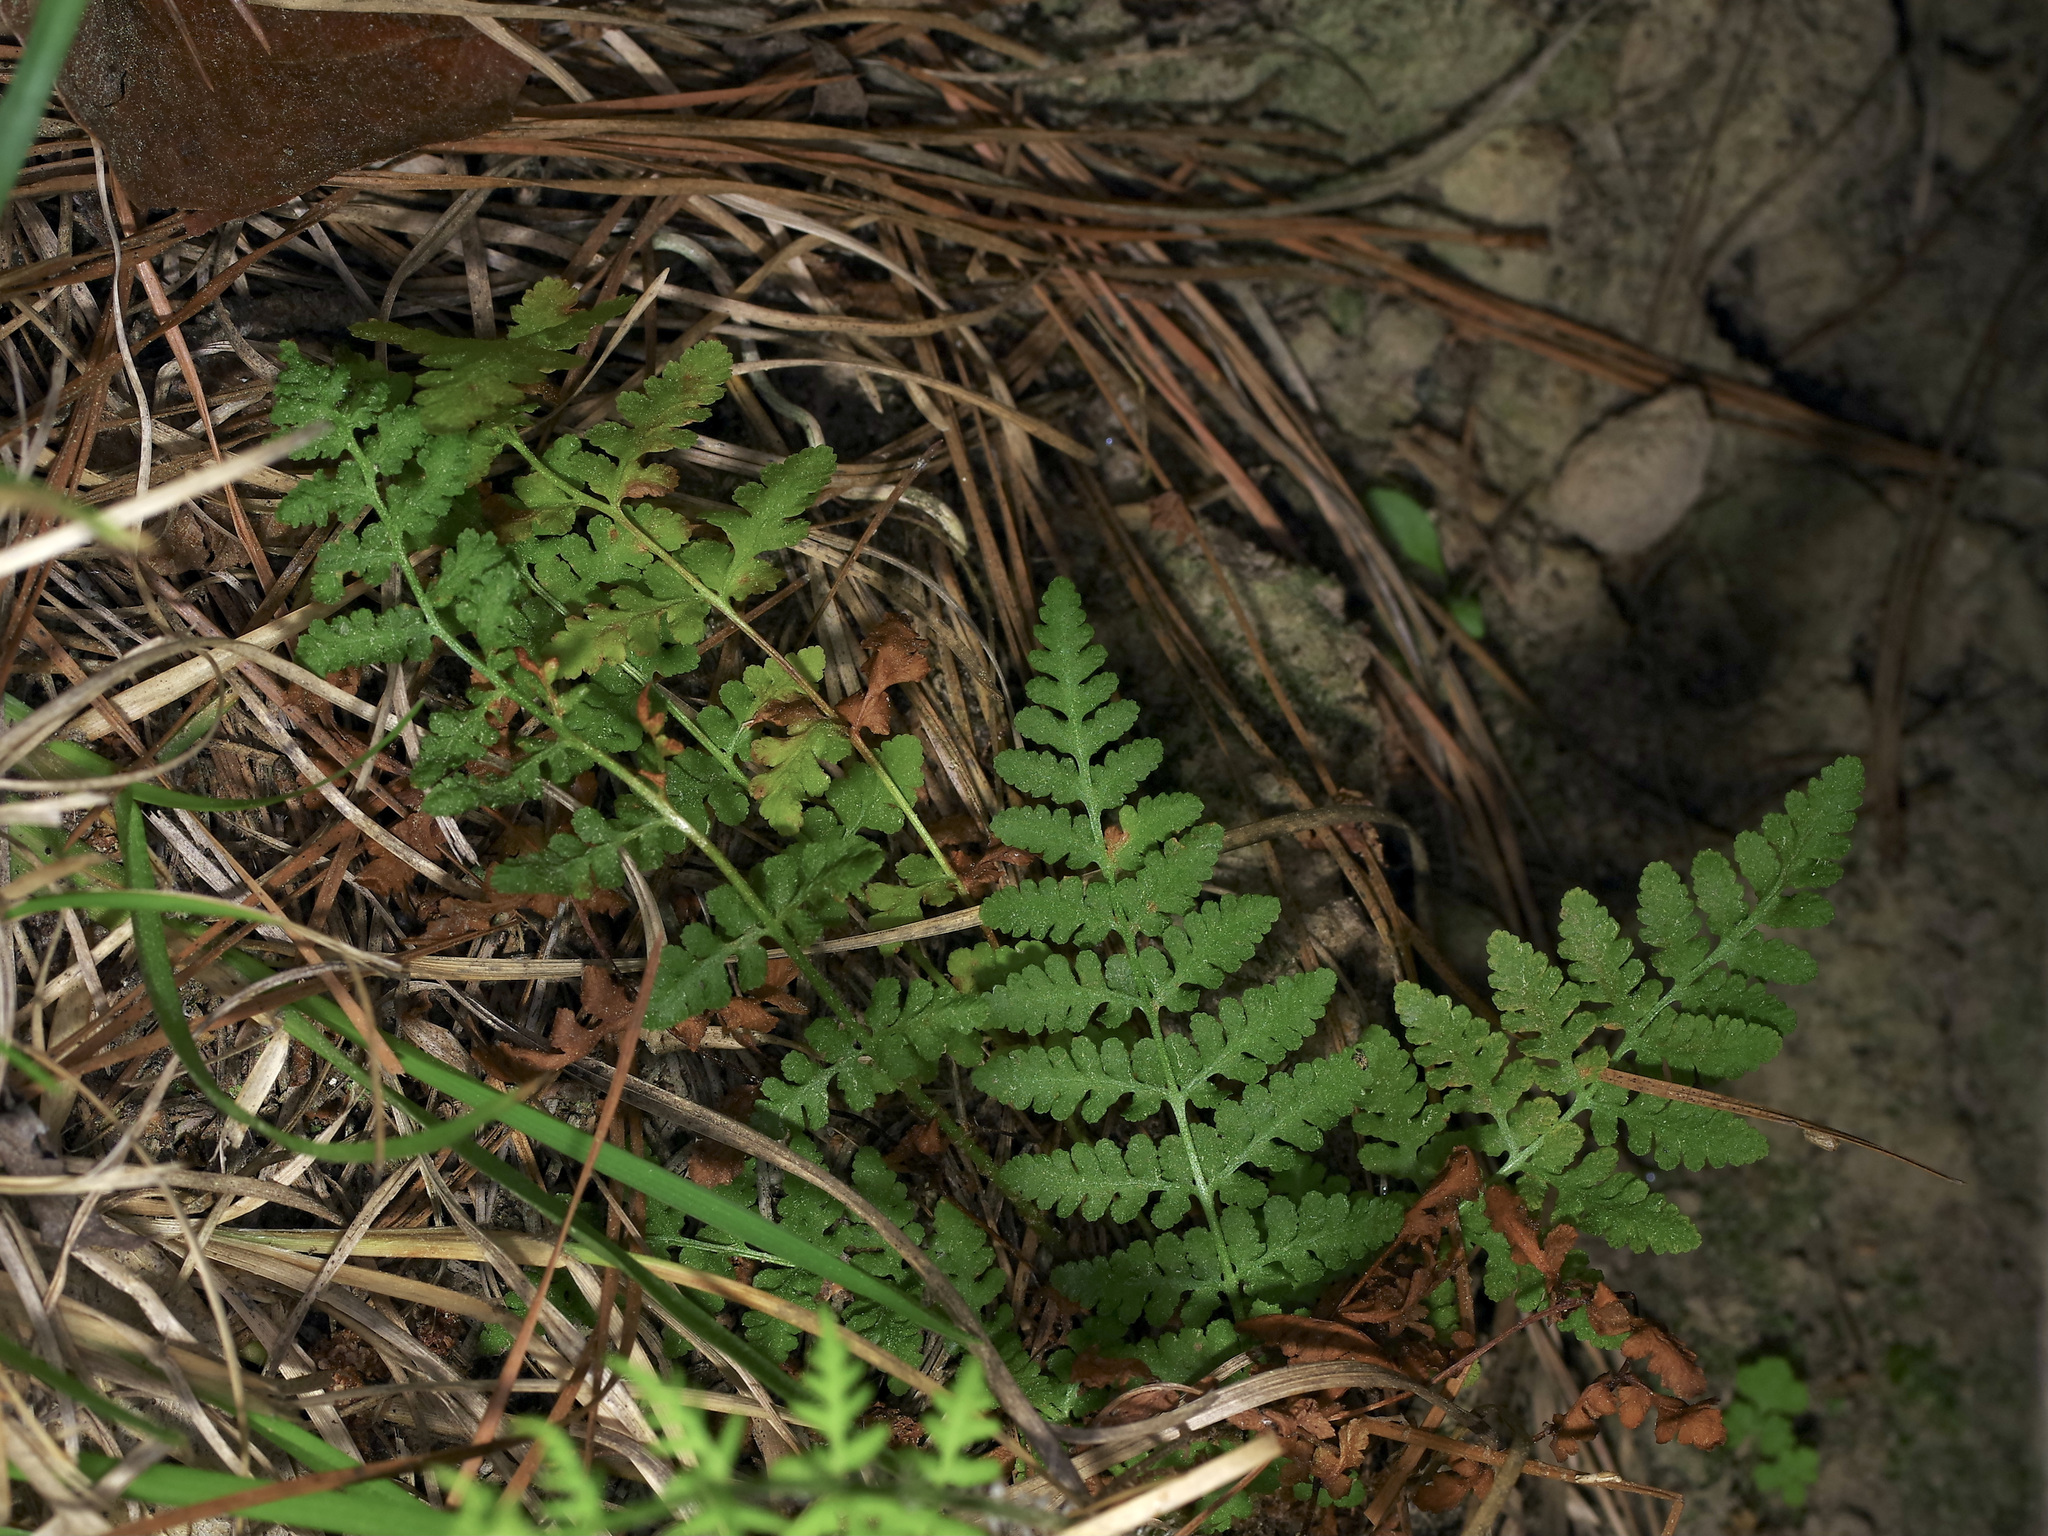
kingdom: Plantae
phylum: Tracheophyta
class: Polypodiopsida
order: Polypodiales
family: Woodsiaceae
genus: Physematium
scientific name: Physematium obtusum
